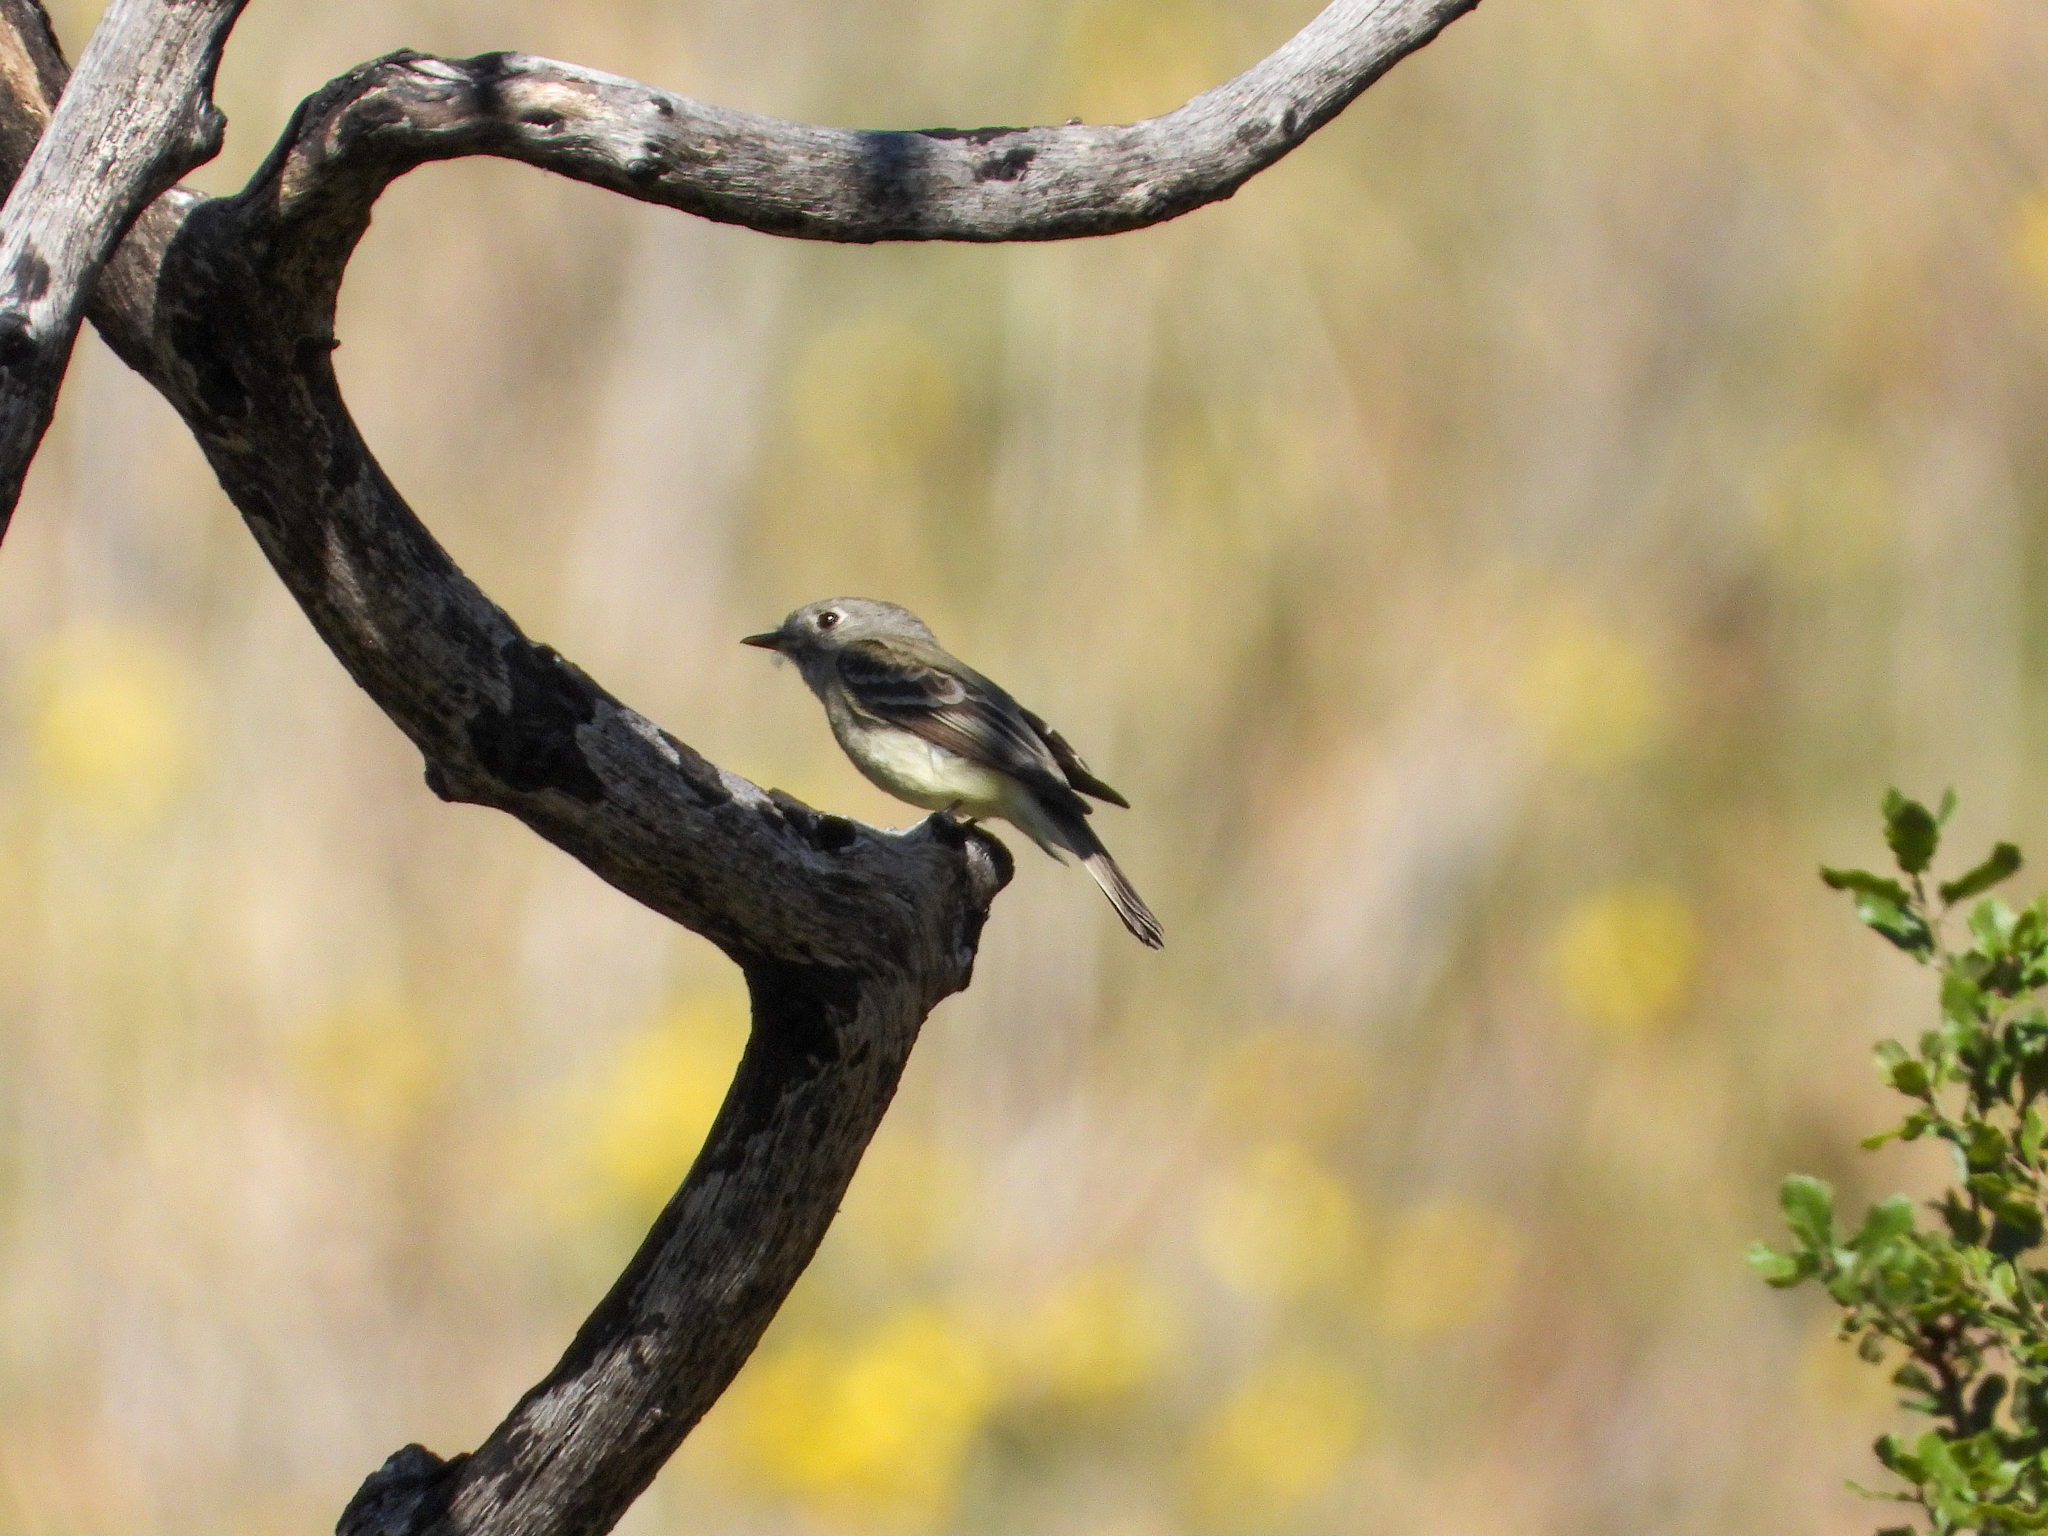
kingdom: Animalia
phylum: Chordata
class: Aves
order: Passeriformes
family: Tyrannidae
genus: Empidonax
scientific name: Empidonax hammondii
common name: Hammond's flycatcher
